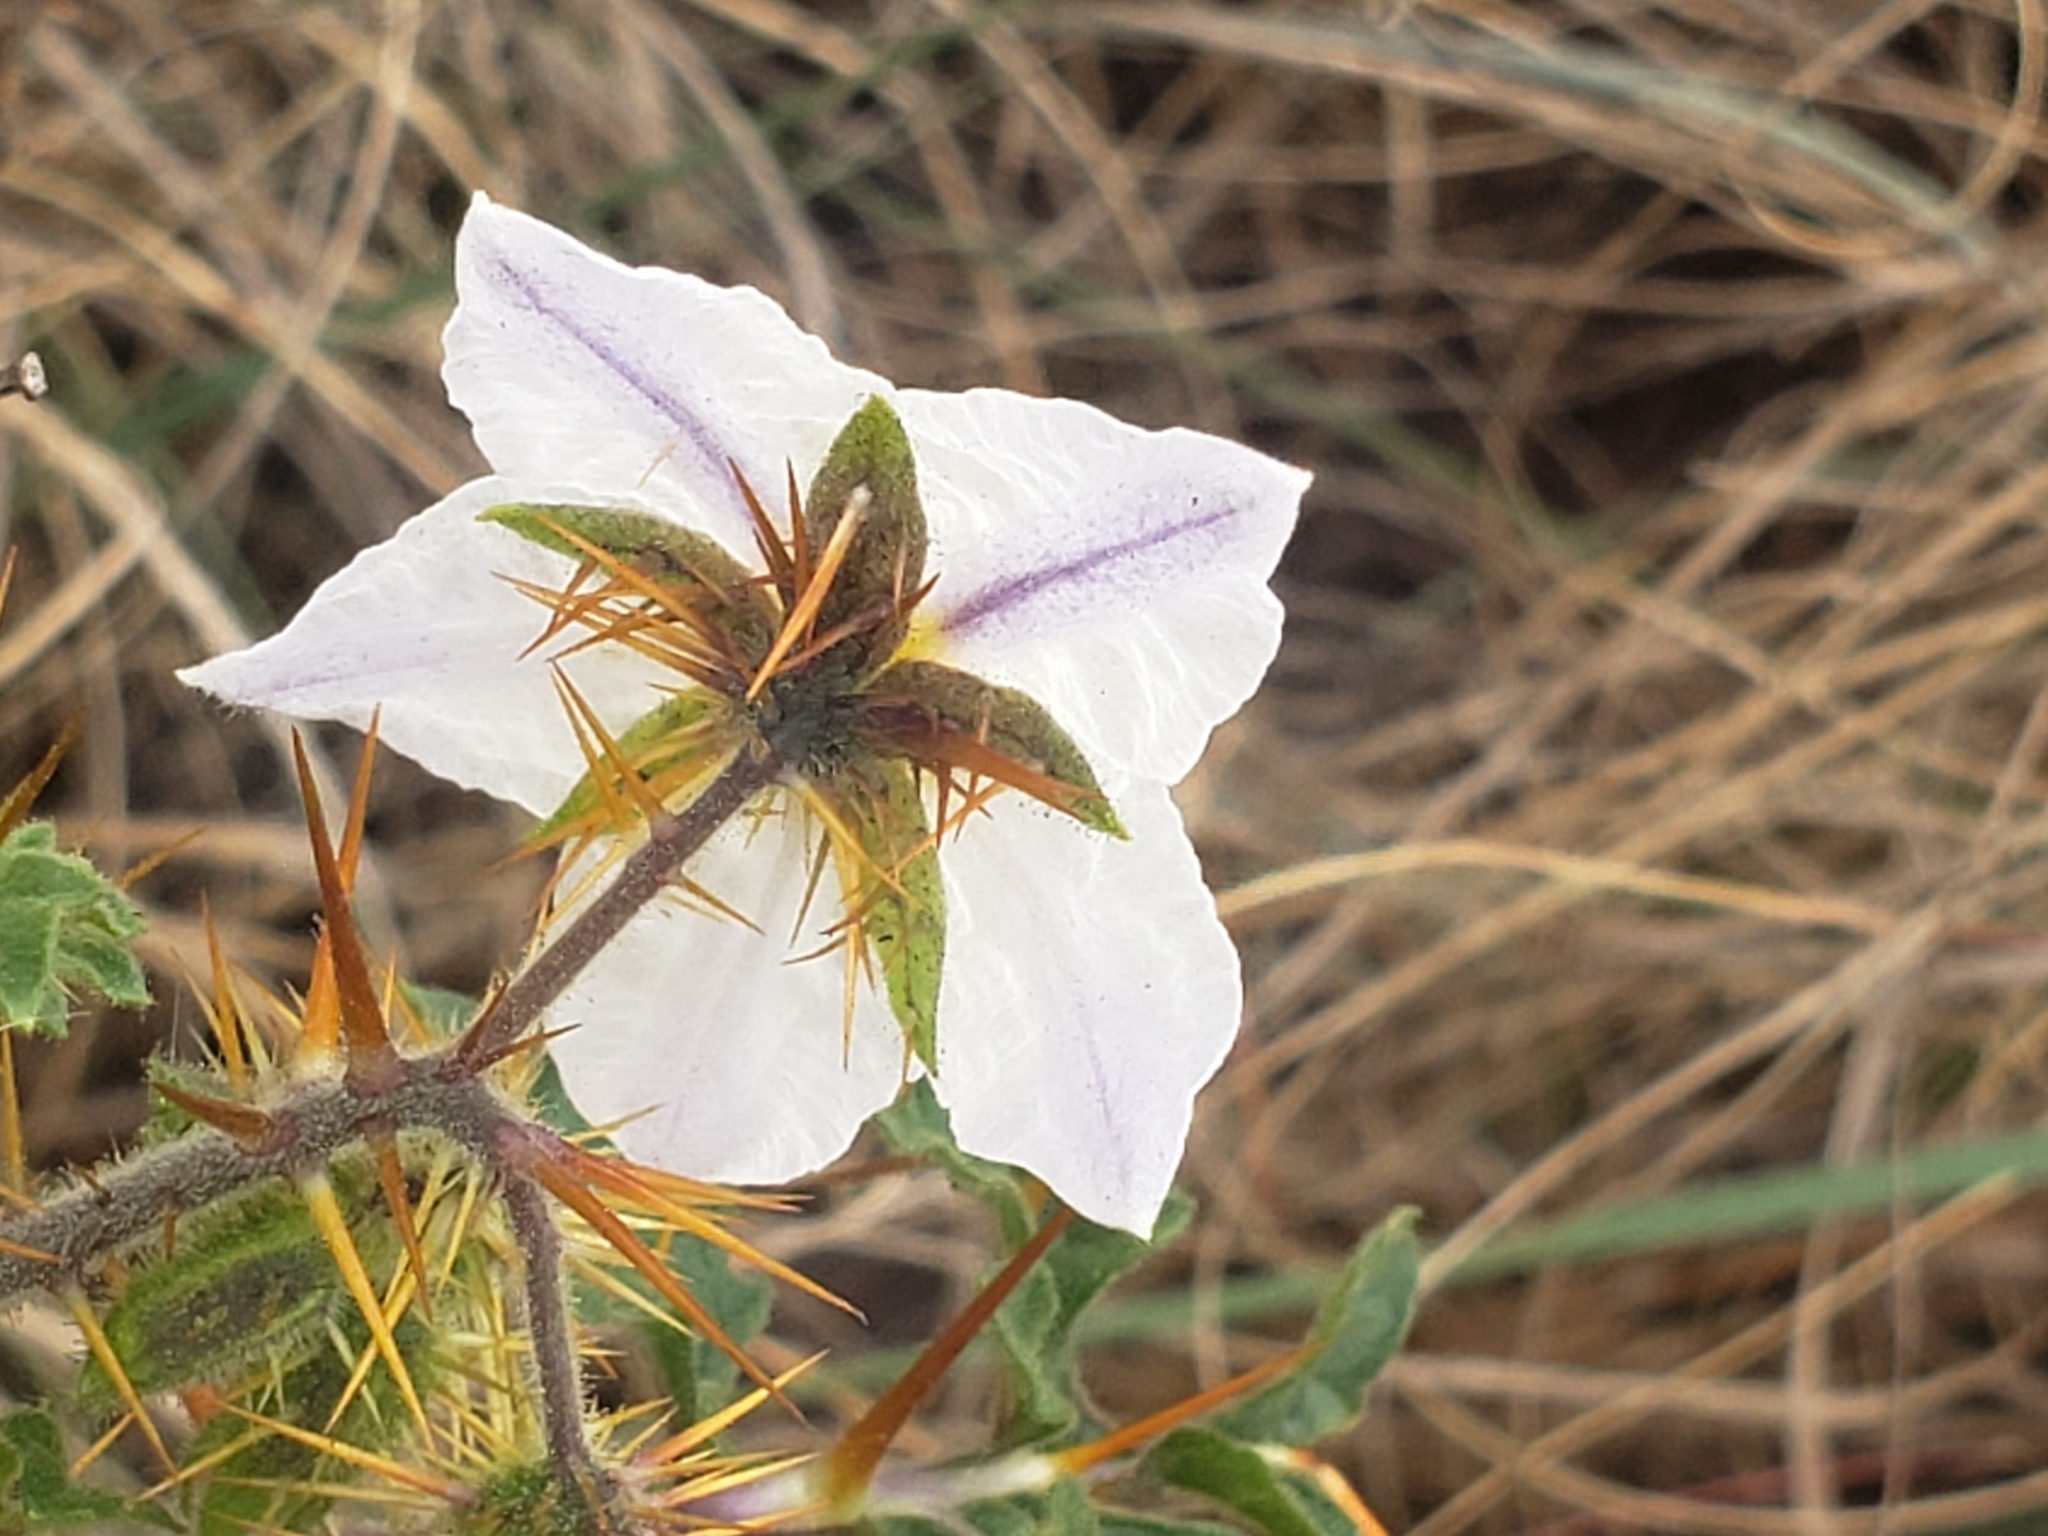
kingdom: Plantae
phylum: Tracheophyta
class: Magnoliopsida
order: Solanales
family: Solanaceae
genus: Solanum
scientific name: Solanum sisymbriifolium
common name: Red buffalo-bur
